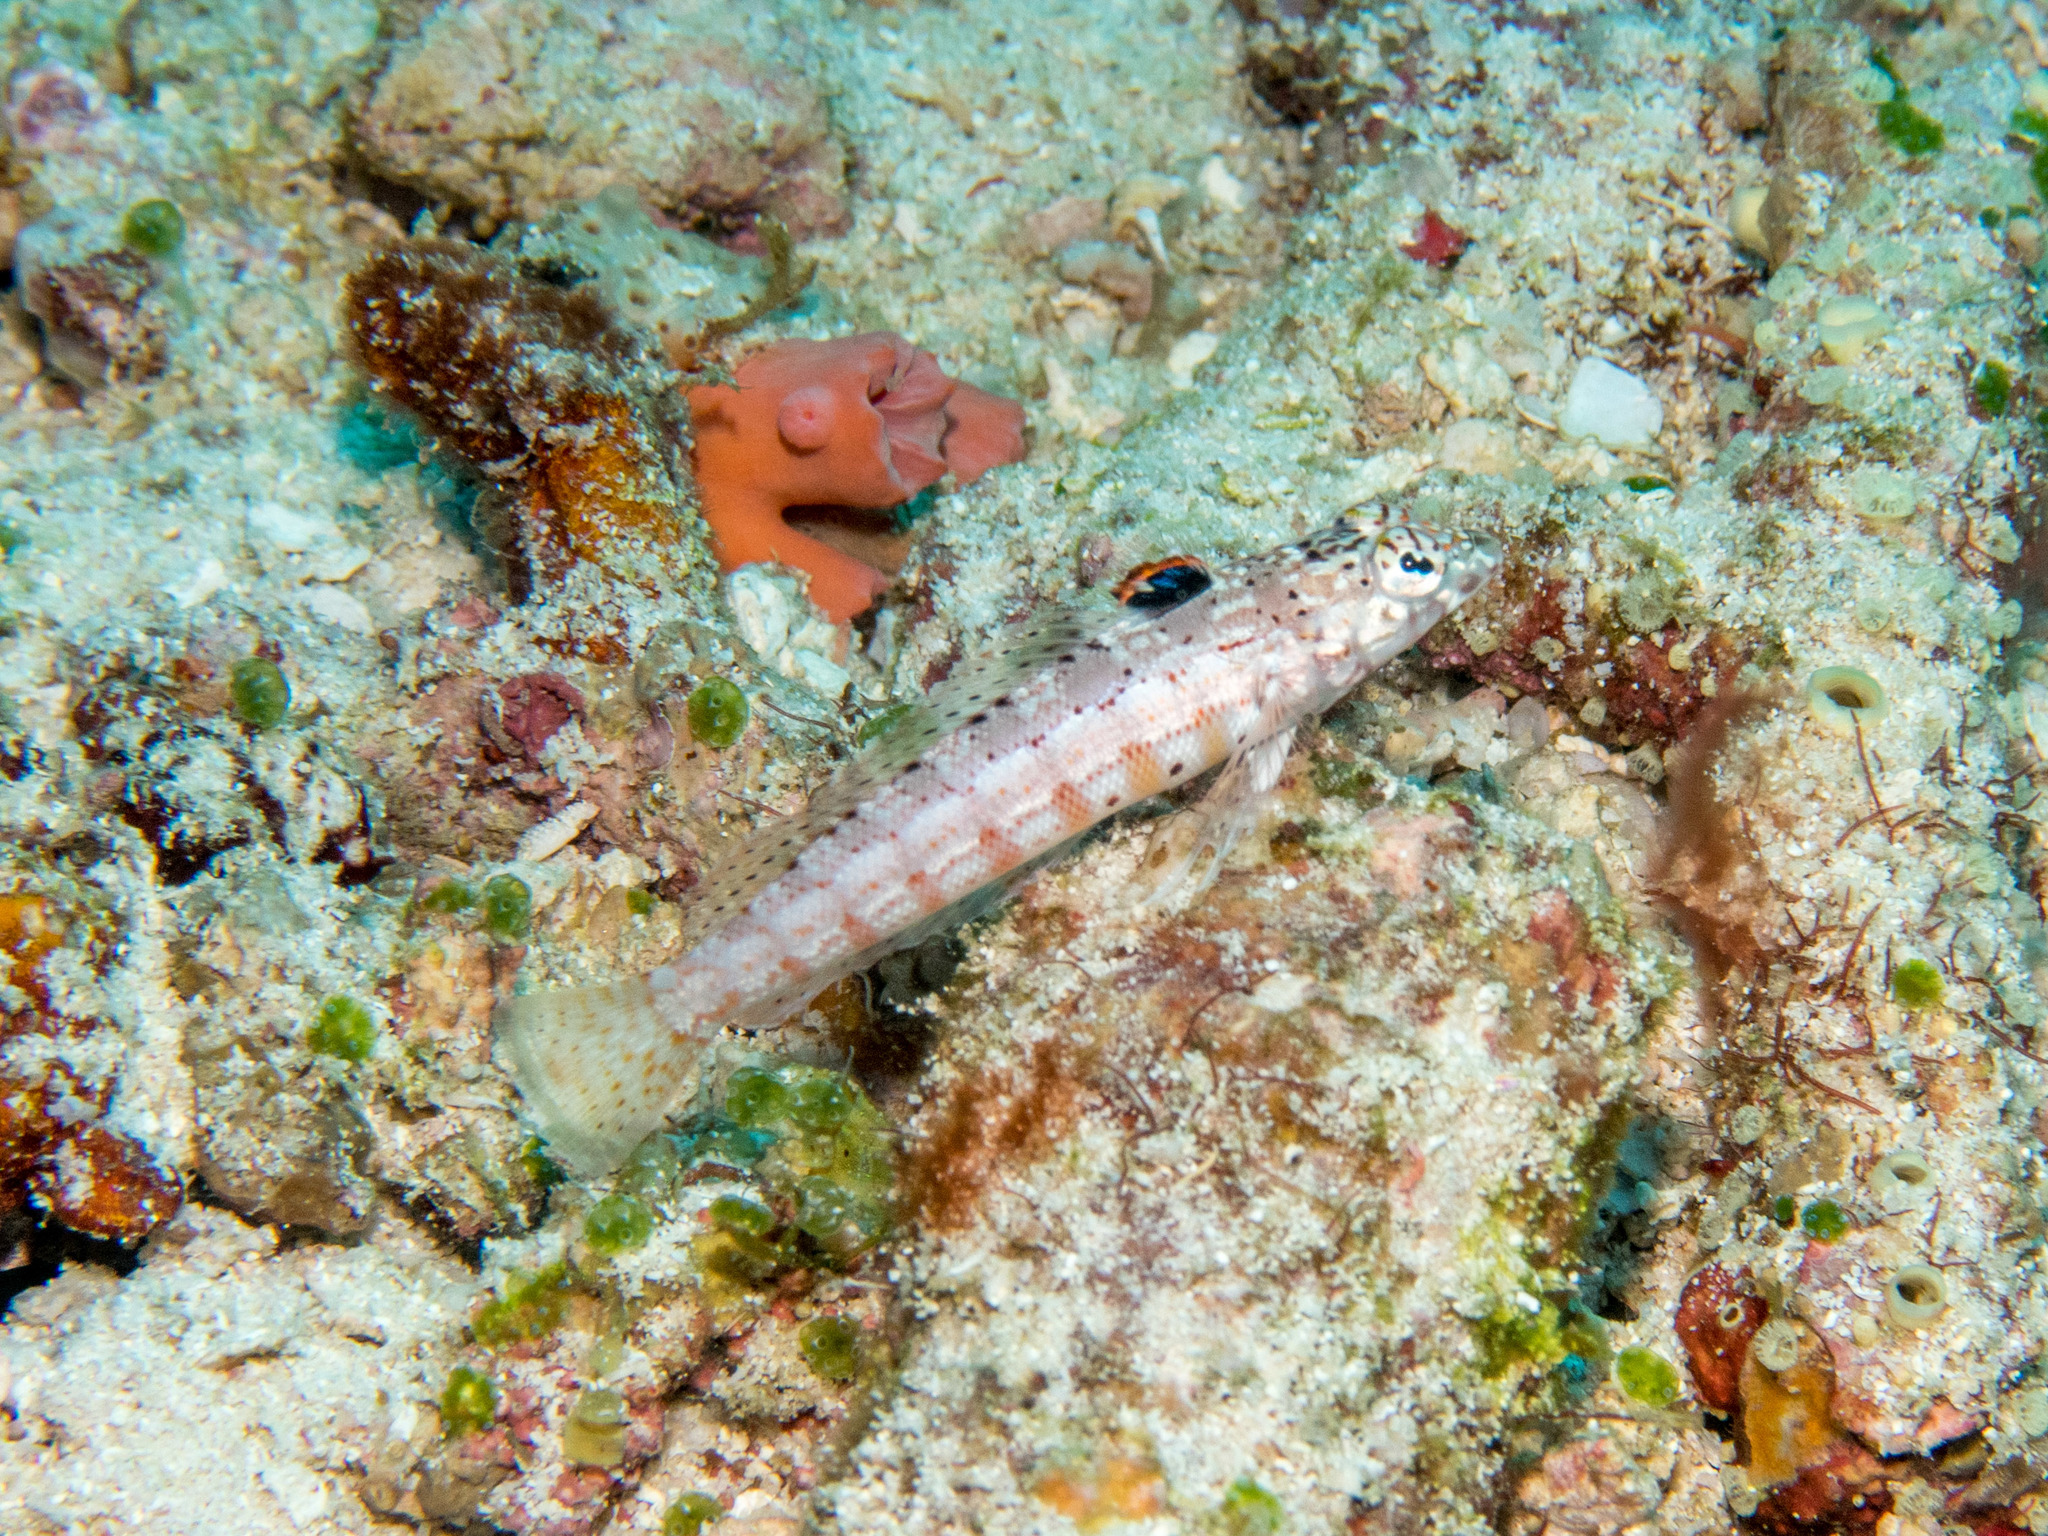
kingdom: Animalia
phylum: Chordata
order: Perciformes
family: Pinguipedidae
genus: Parapercis
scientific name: Parapercis signata
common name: Blackflag sandperch
